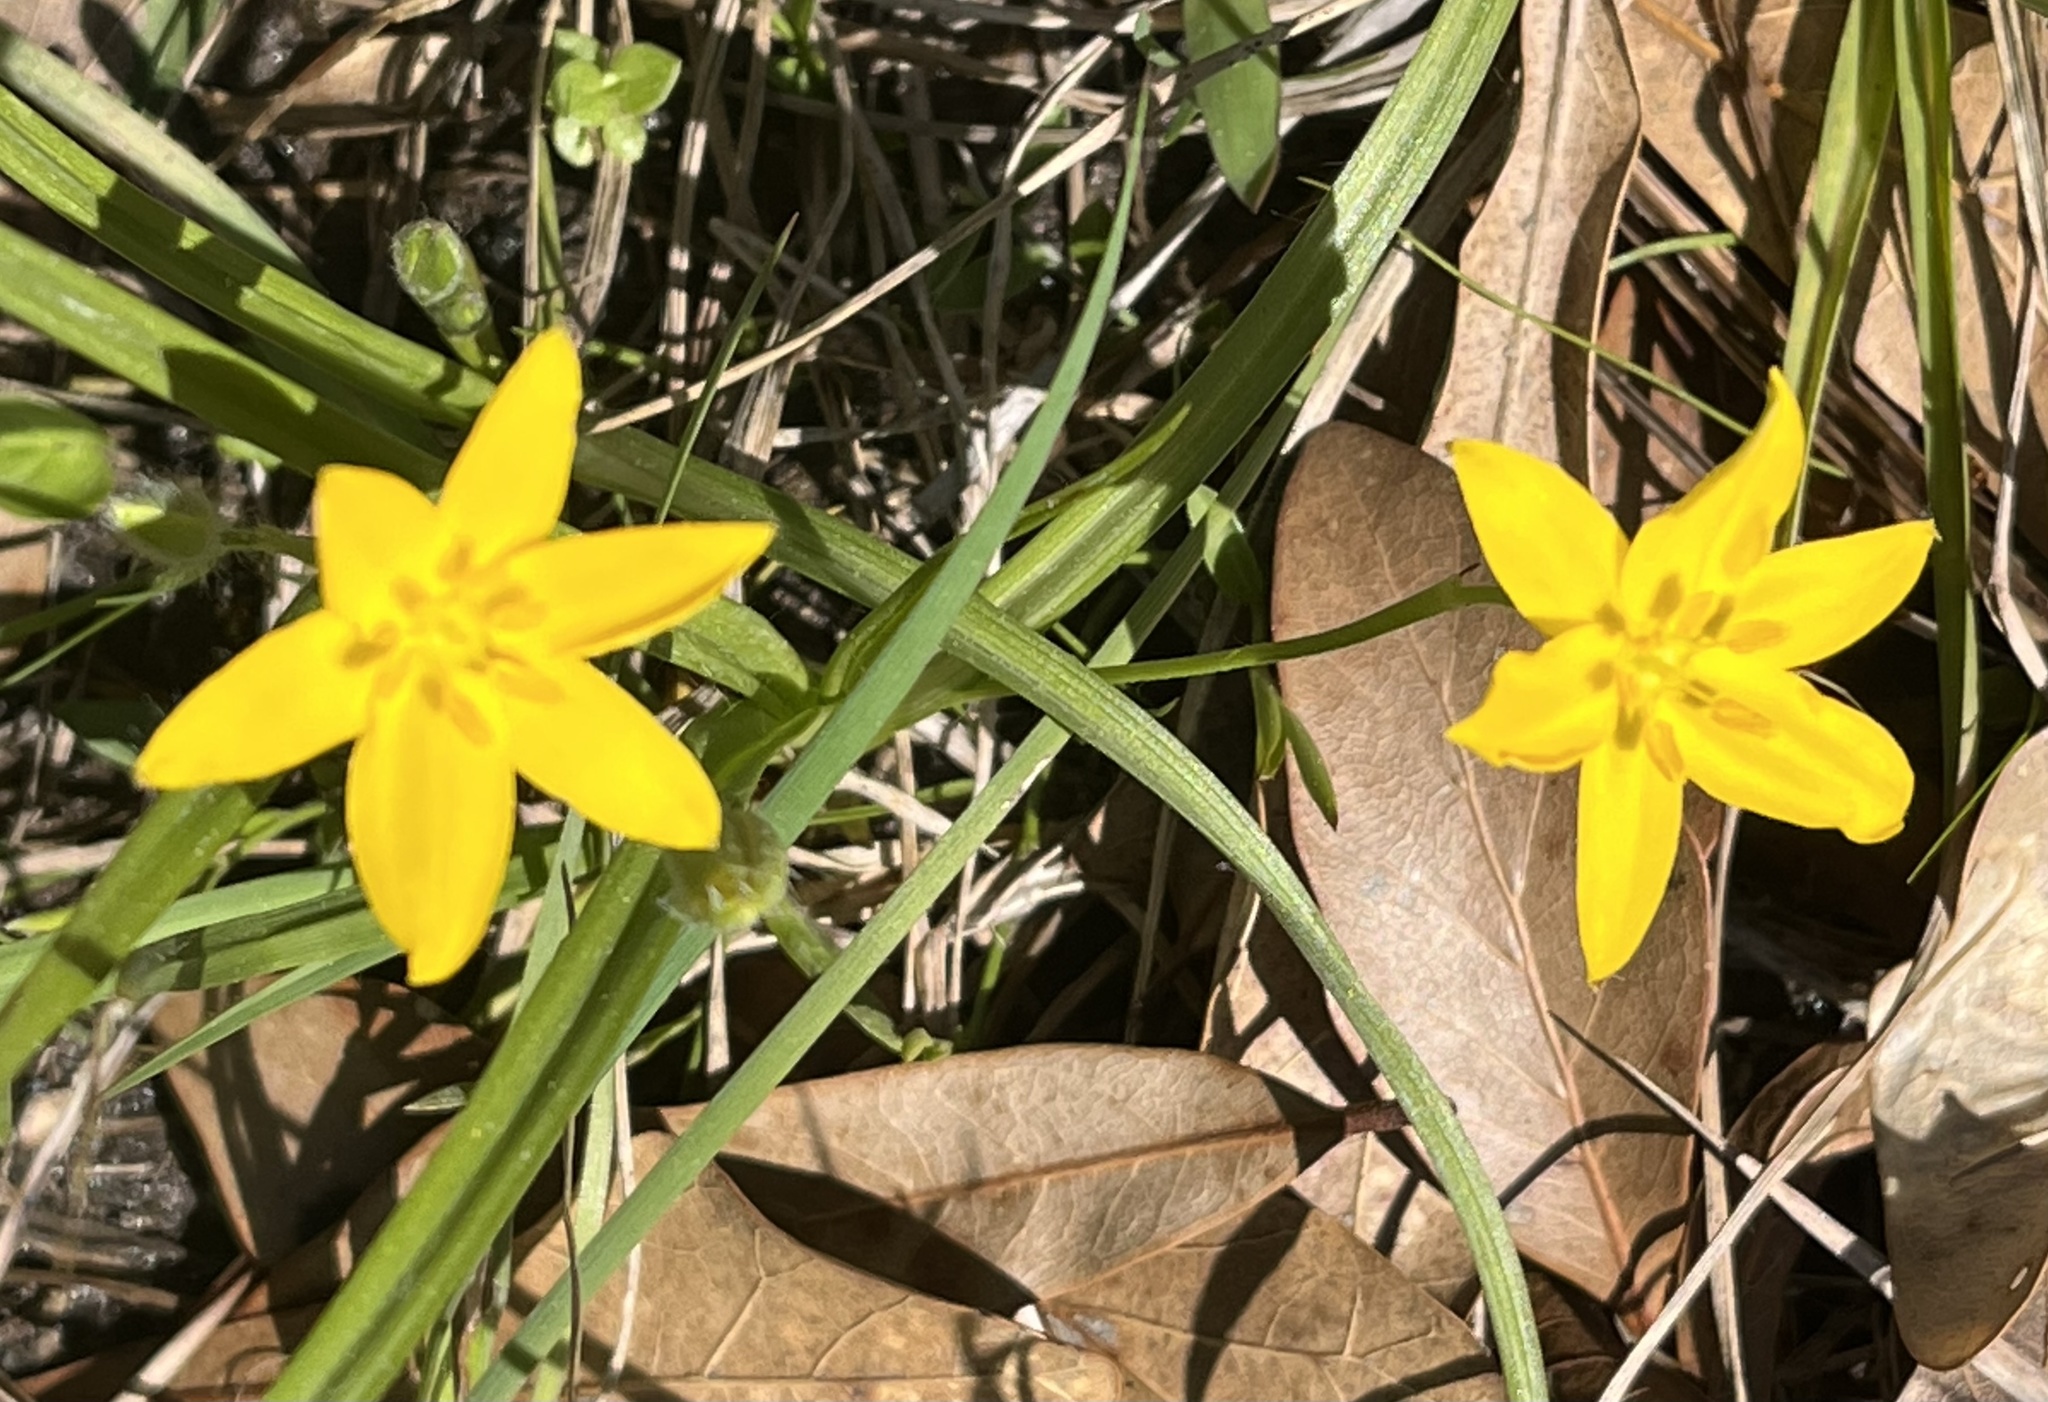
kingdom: Plantae
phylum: Tracheophyta
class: Liliopsida
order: Asparagales
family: Hypoxidaceae
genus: Hypoxis
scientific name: Hypoxis hirsuta
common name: Common goldstar
